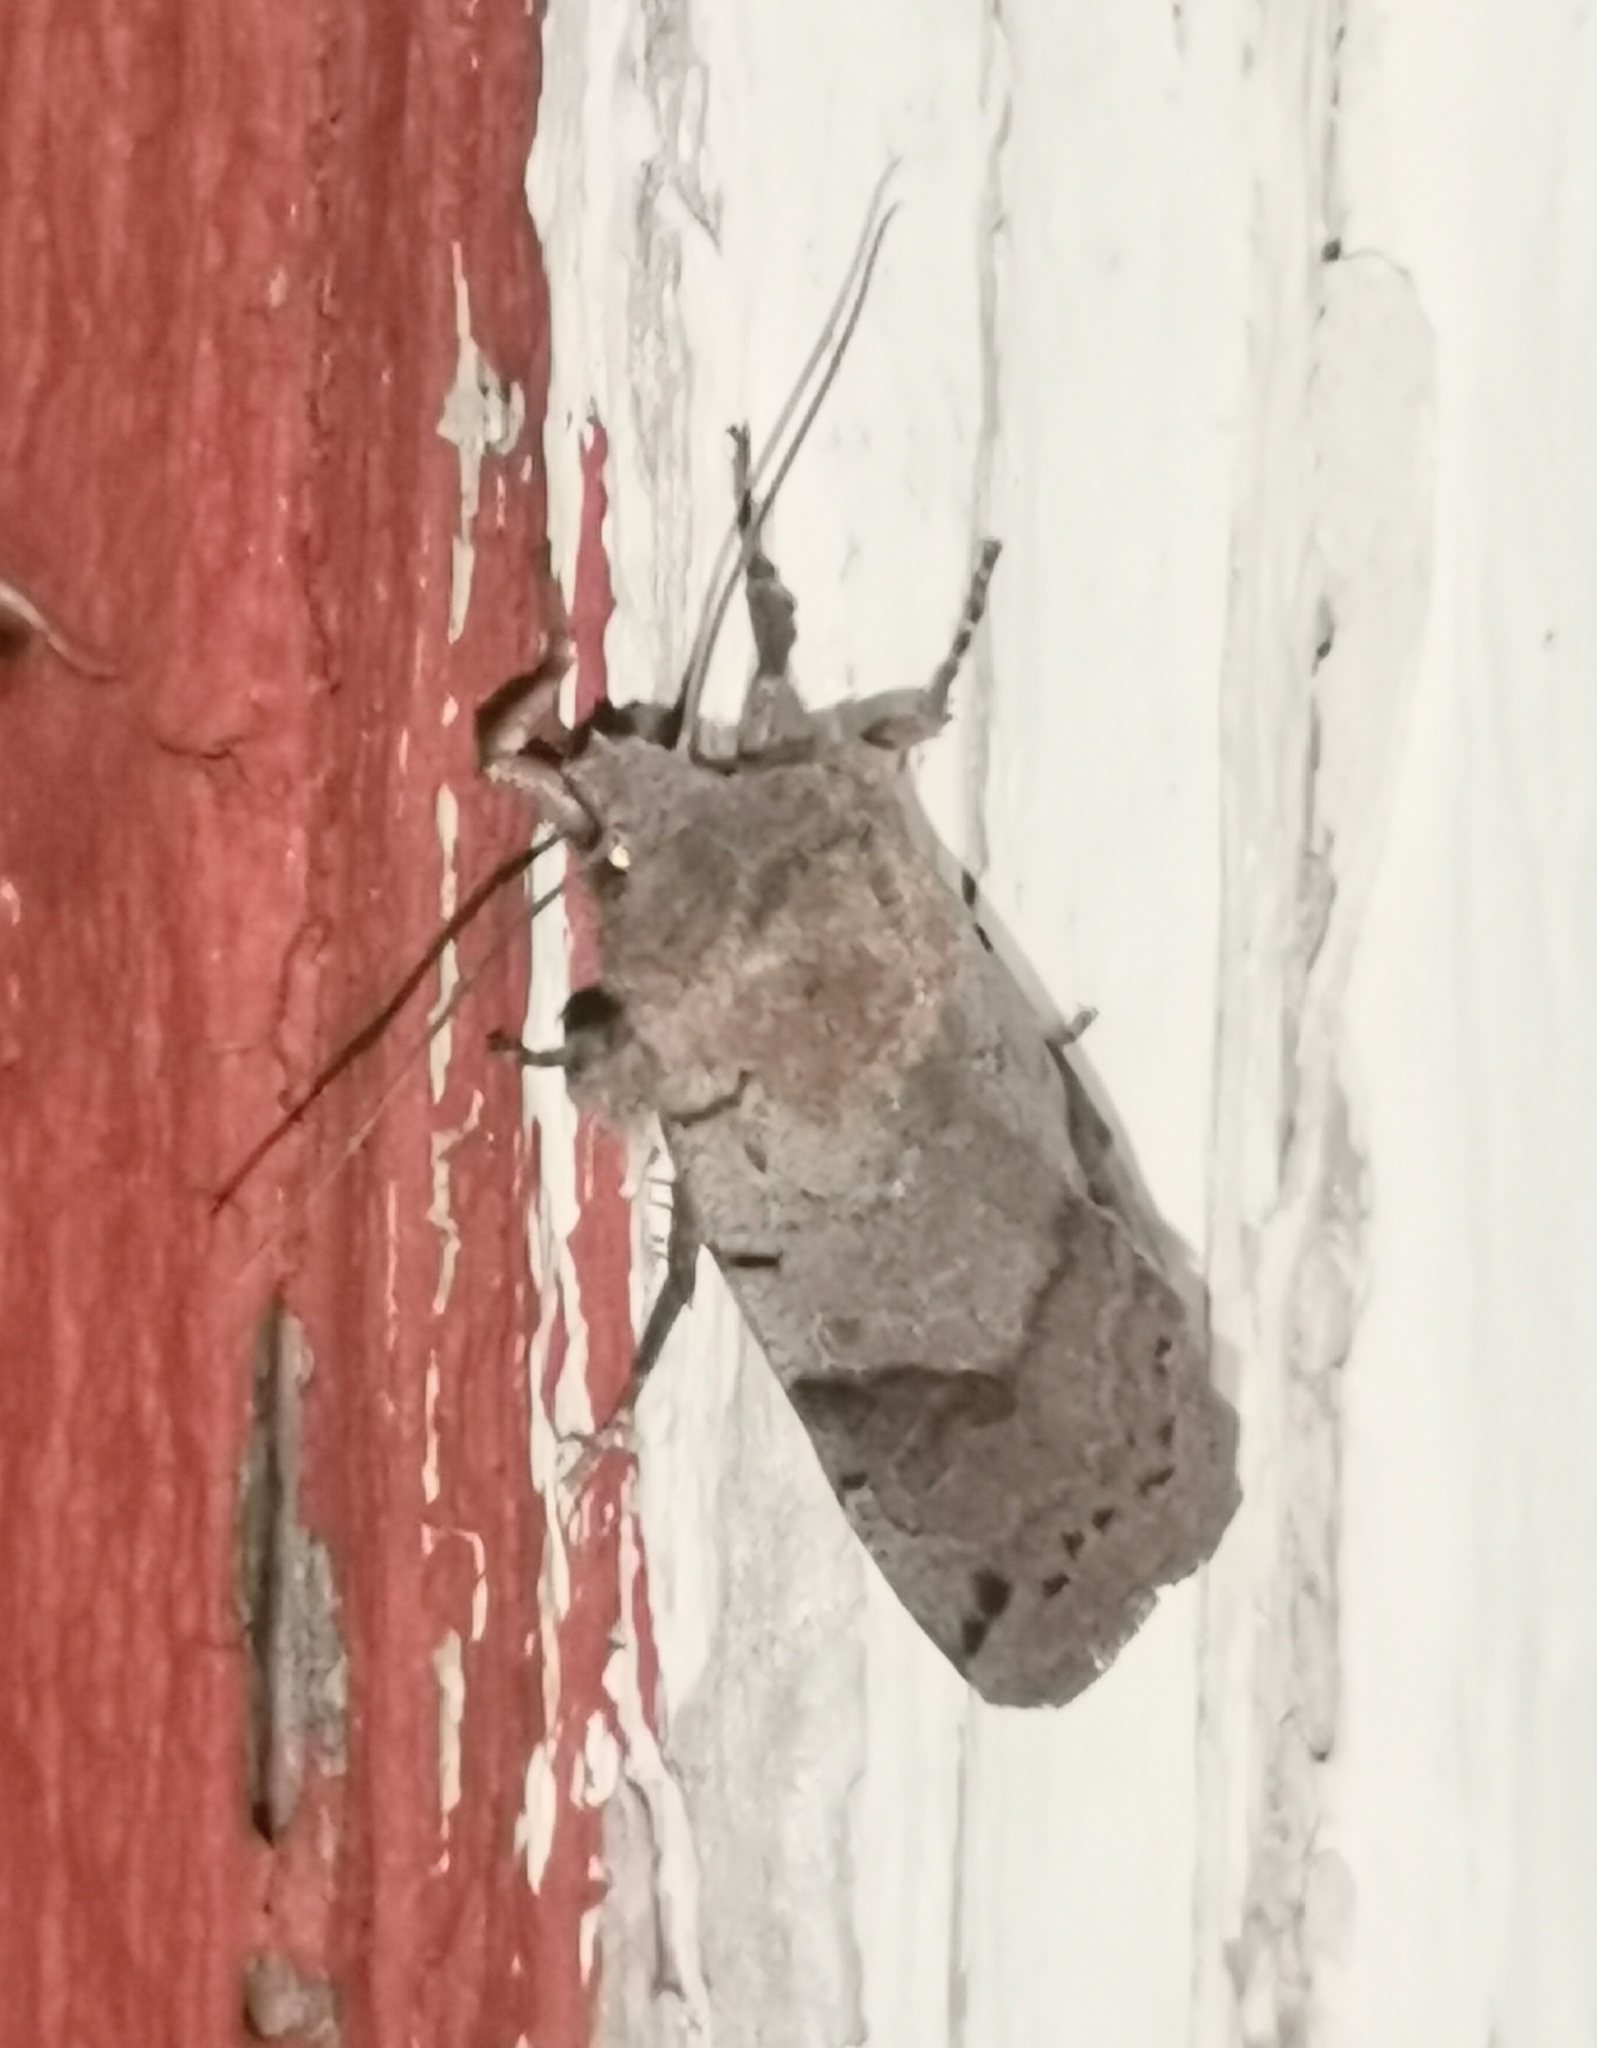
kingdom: Animalia
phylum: Arthropoda
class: Insecta
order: Lepidoptera
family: Noctuidae
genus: Agrochola
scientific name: Agrochola litura
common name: Brown-spot pinion
